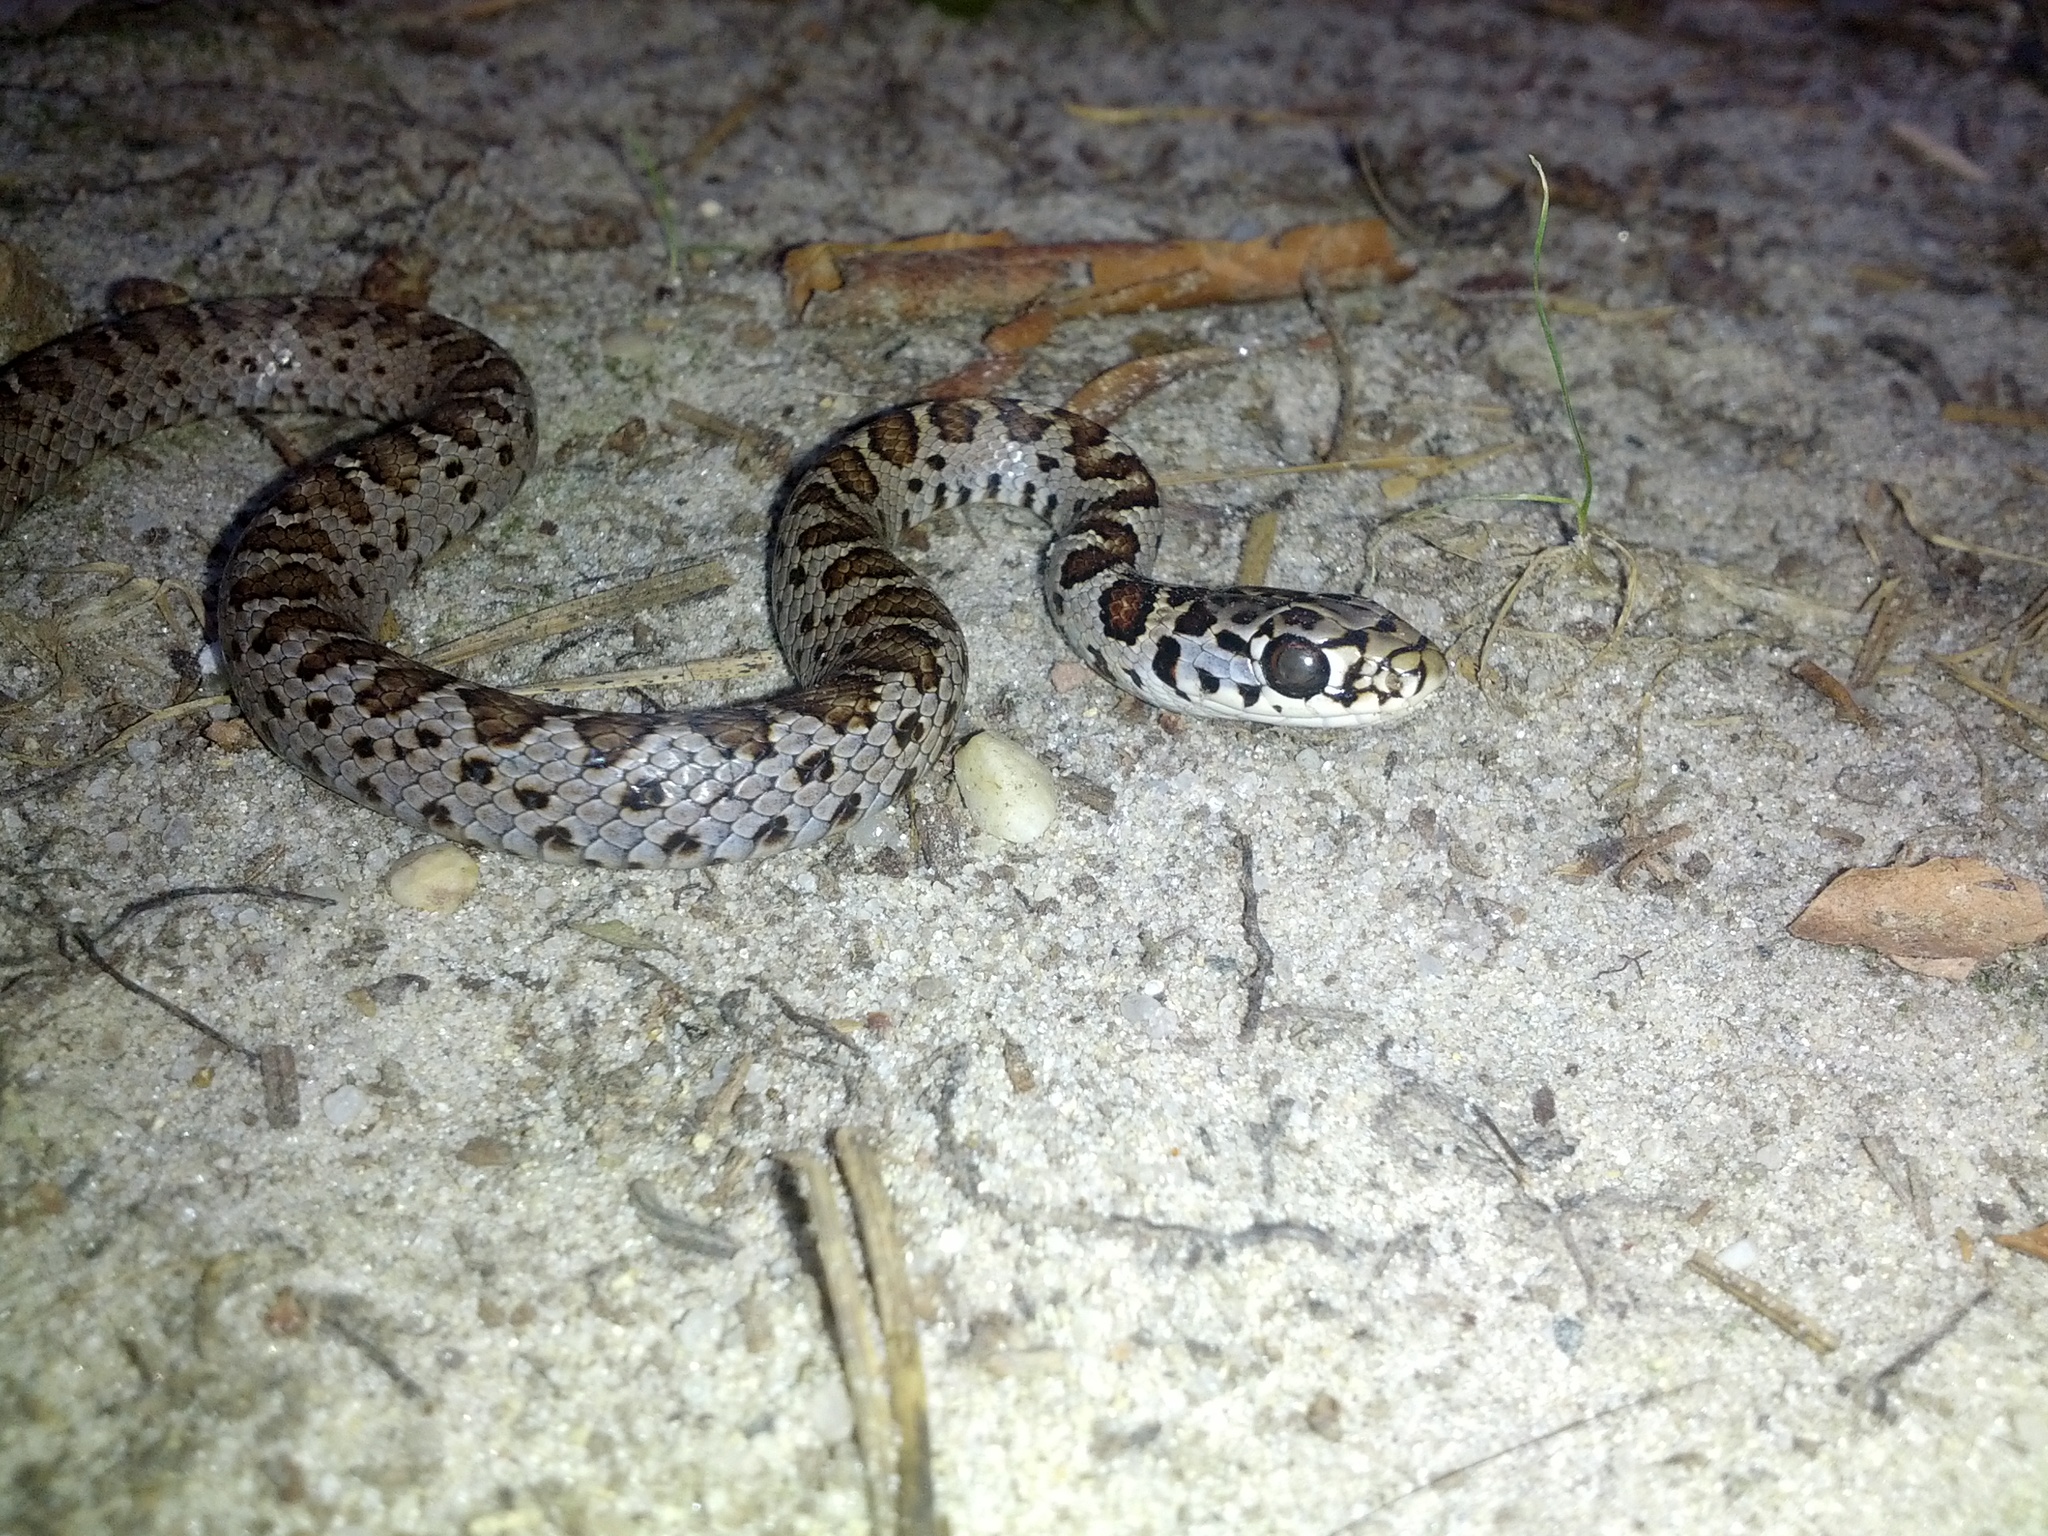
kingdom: Animalia
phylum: Chordata
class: Squamata
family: Colubridae
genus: Coluber
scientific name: Coluber constrictor
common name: Eastern racer
